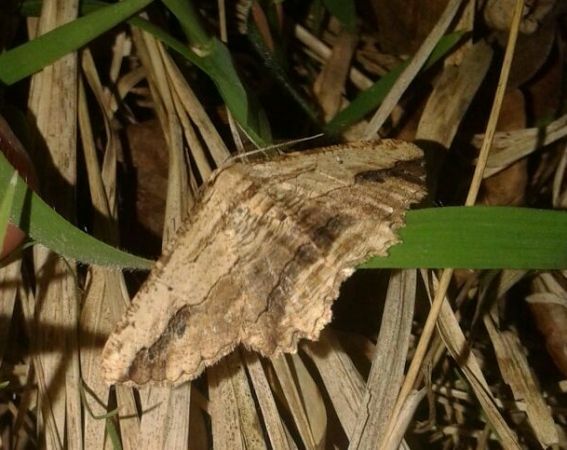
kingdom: Animalia
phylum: Arthropoda
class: Insecta
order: Lepidoptera
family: Geometridae
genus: Menophra
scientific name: Menophra abruptaria
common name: Waved umber
